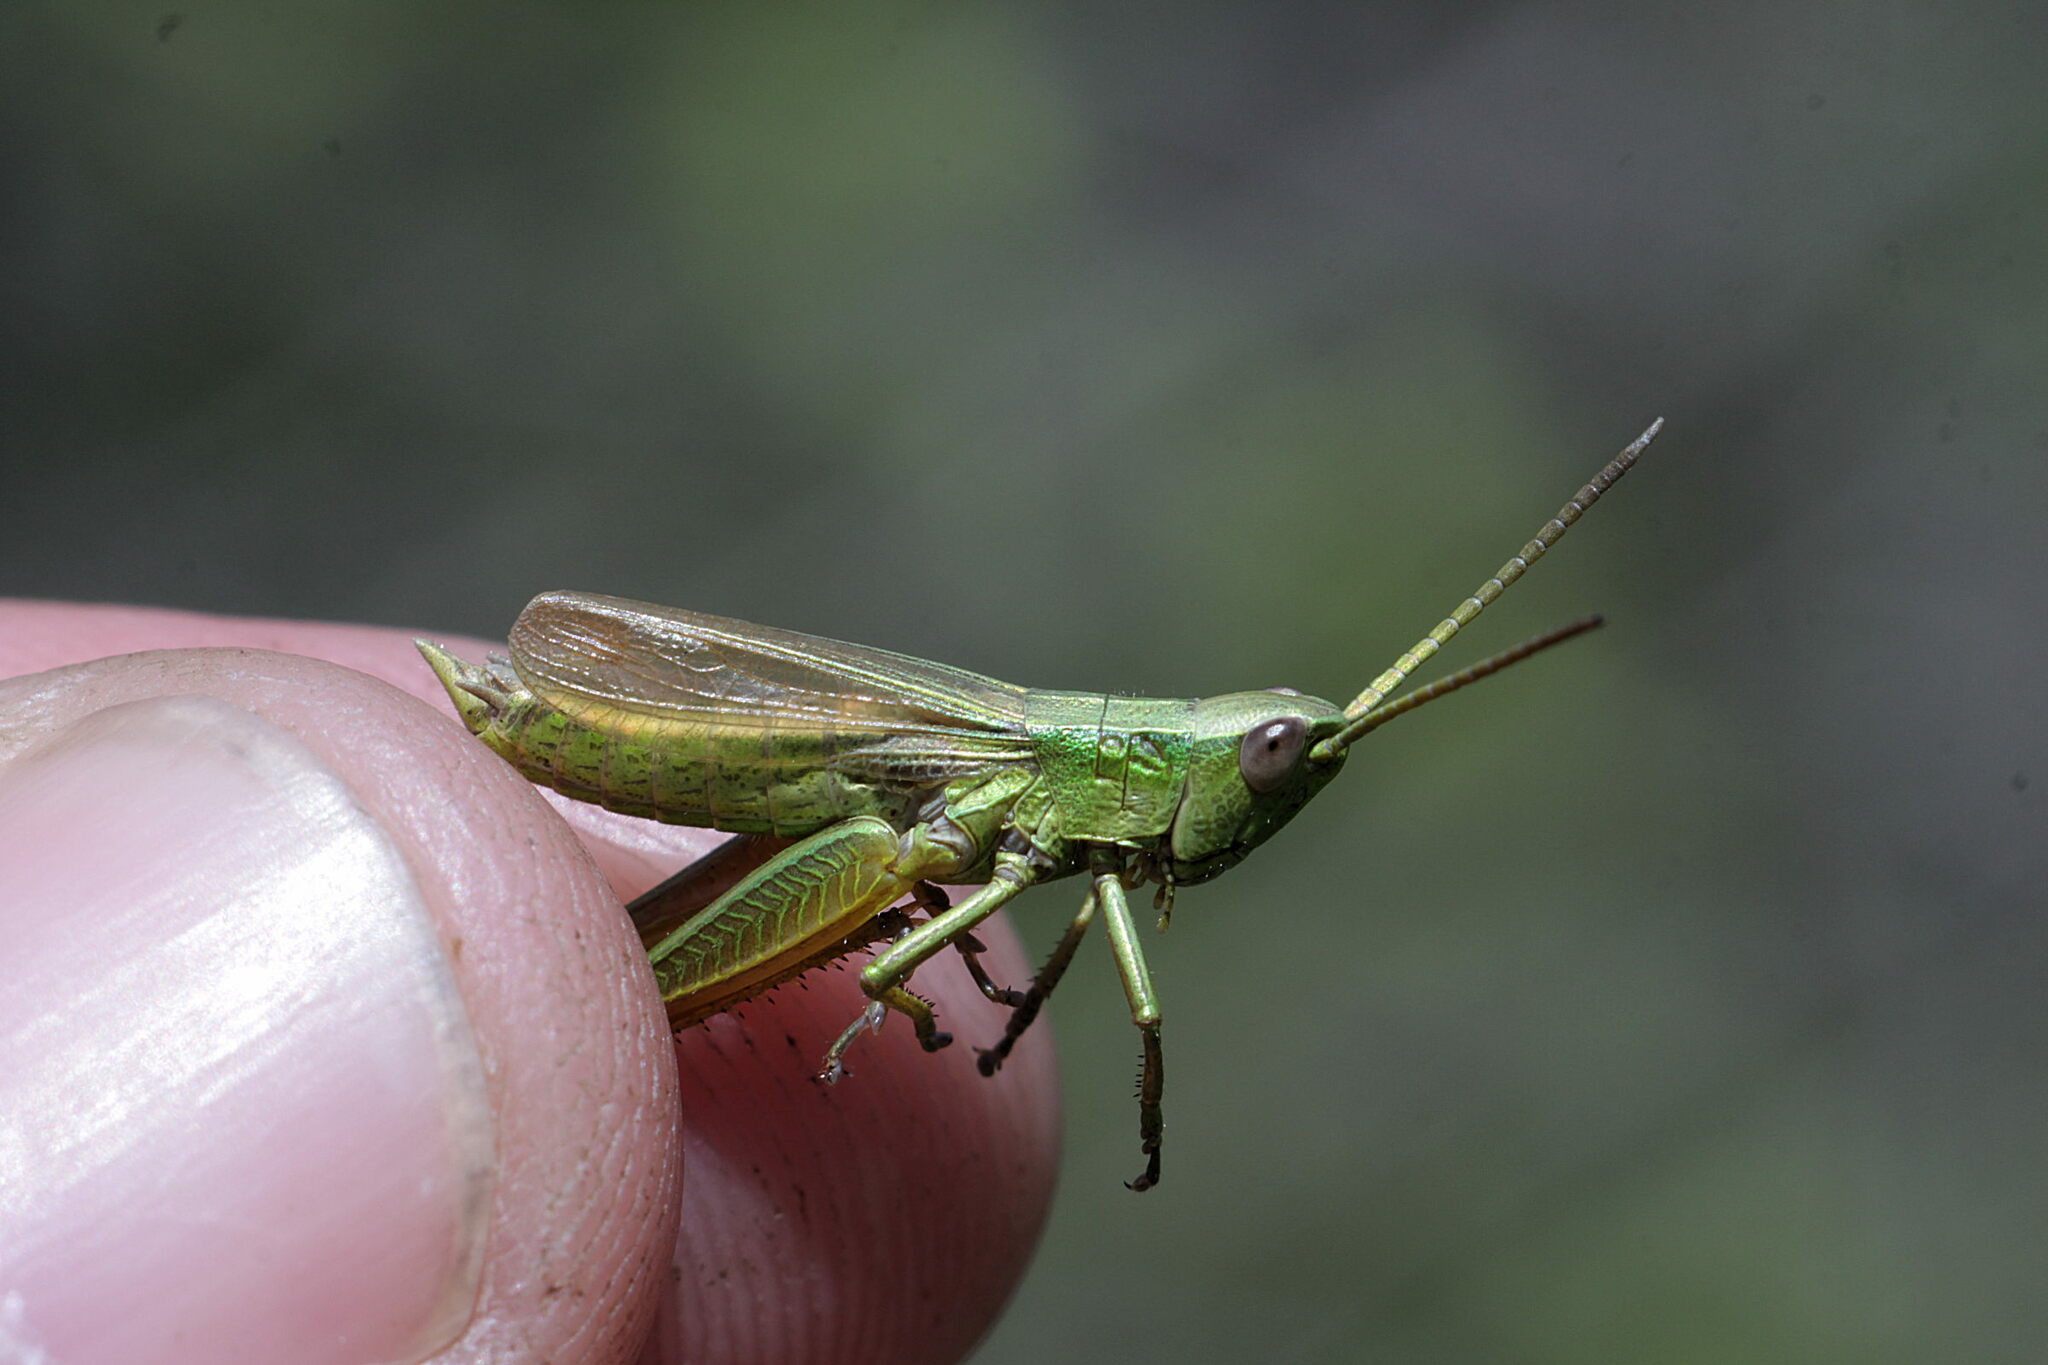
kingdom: Animalia
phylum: Arthropoda
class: Insecta
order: Orthoptera
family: Acrididae
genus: Chrysochraon
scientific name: Chrysochraon dispar
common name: Large gold grasshopper
